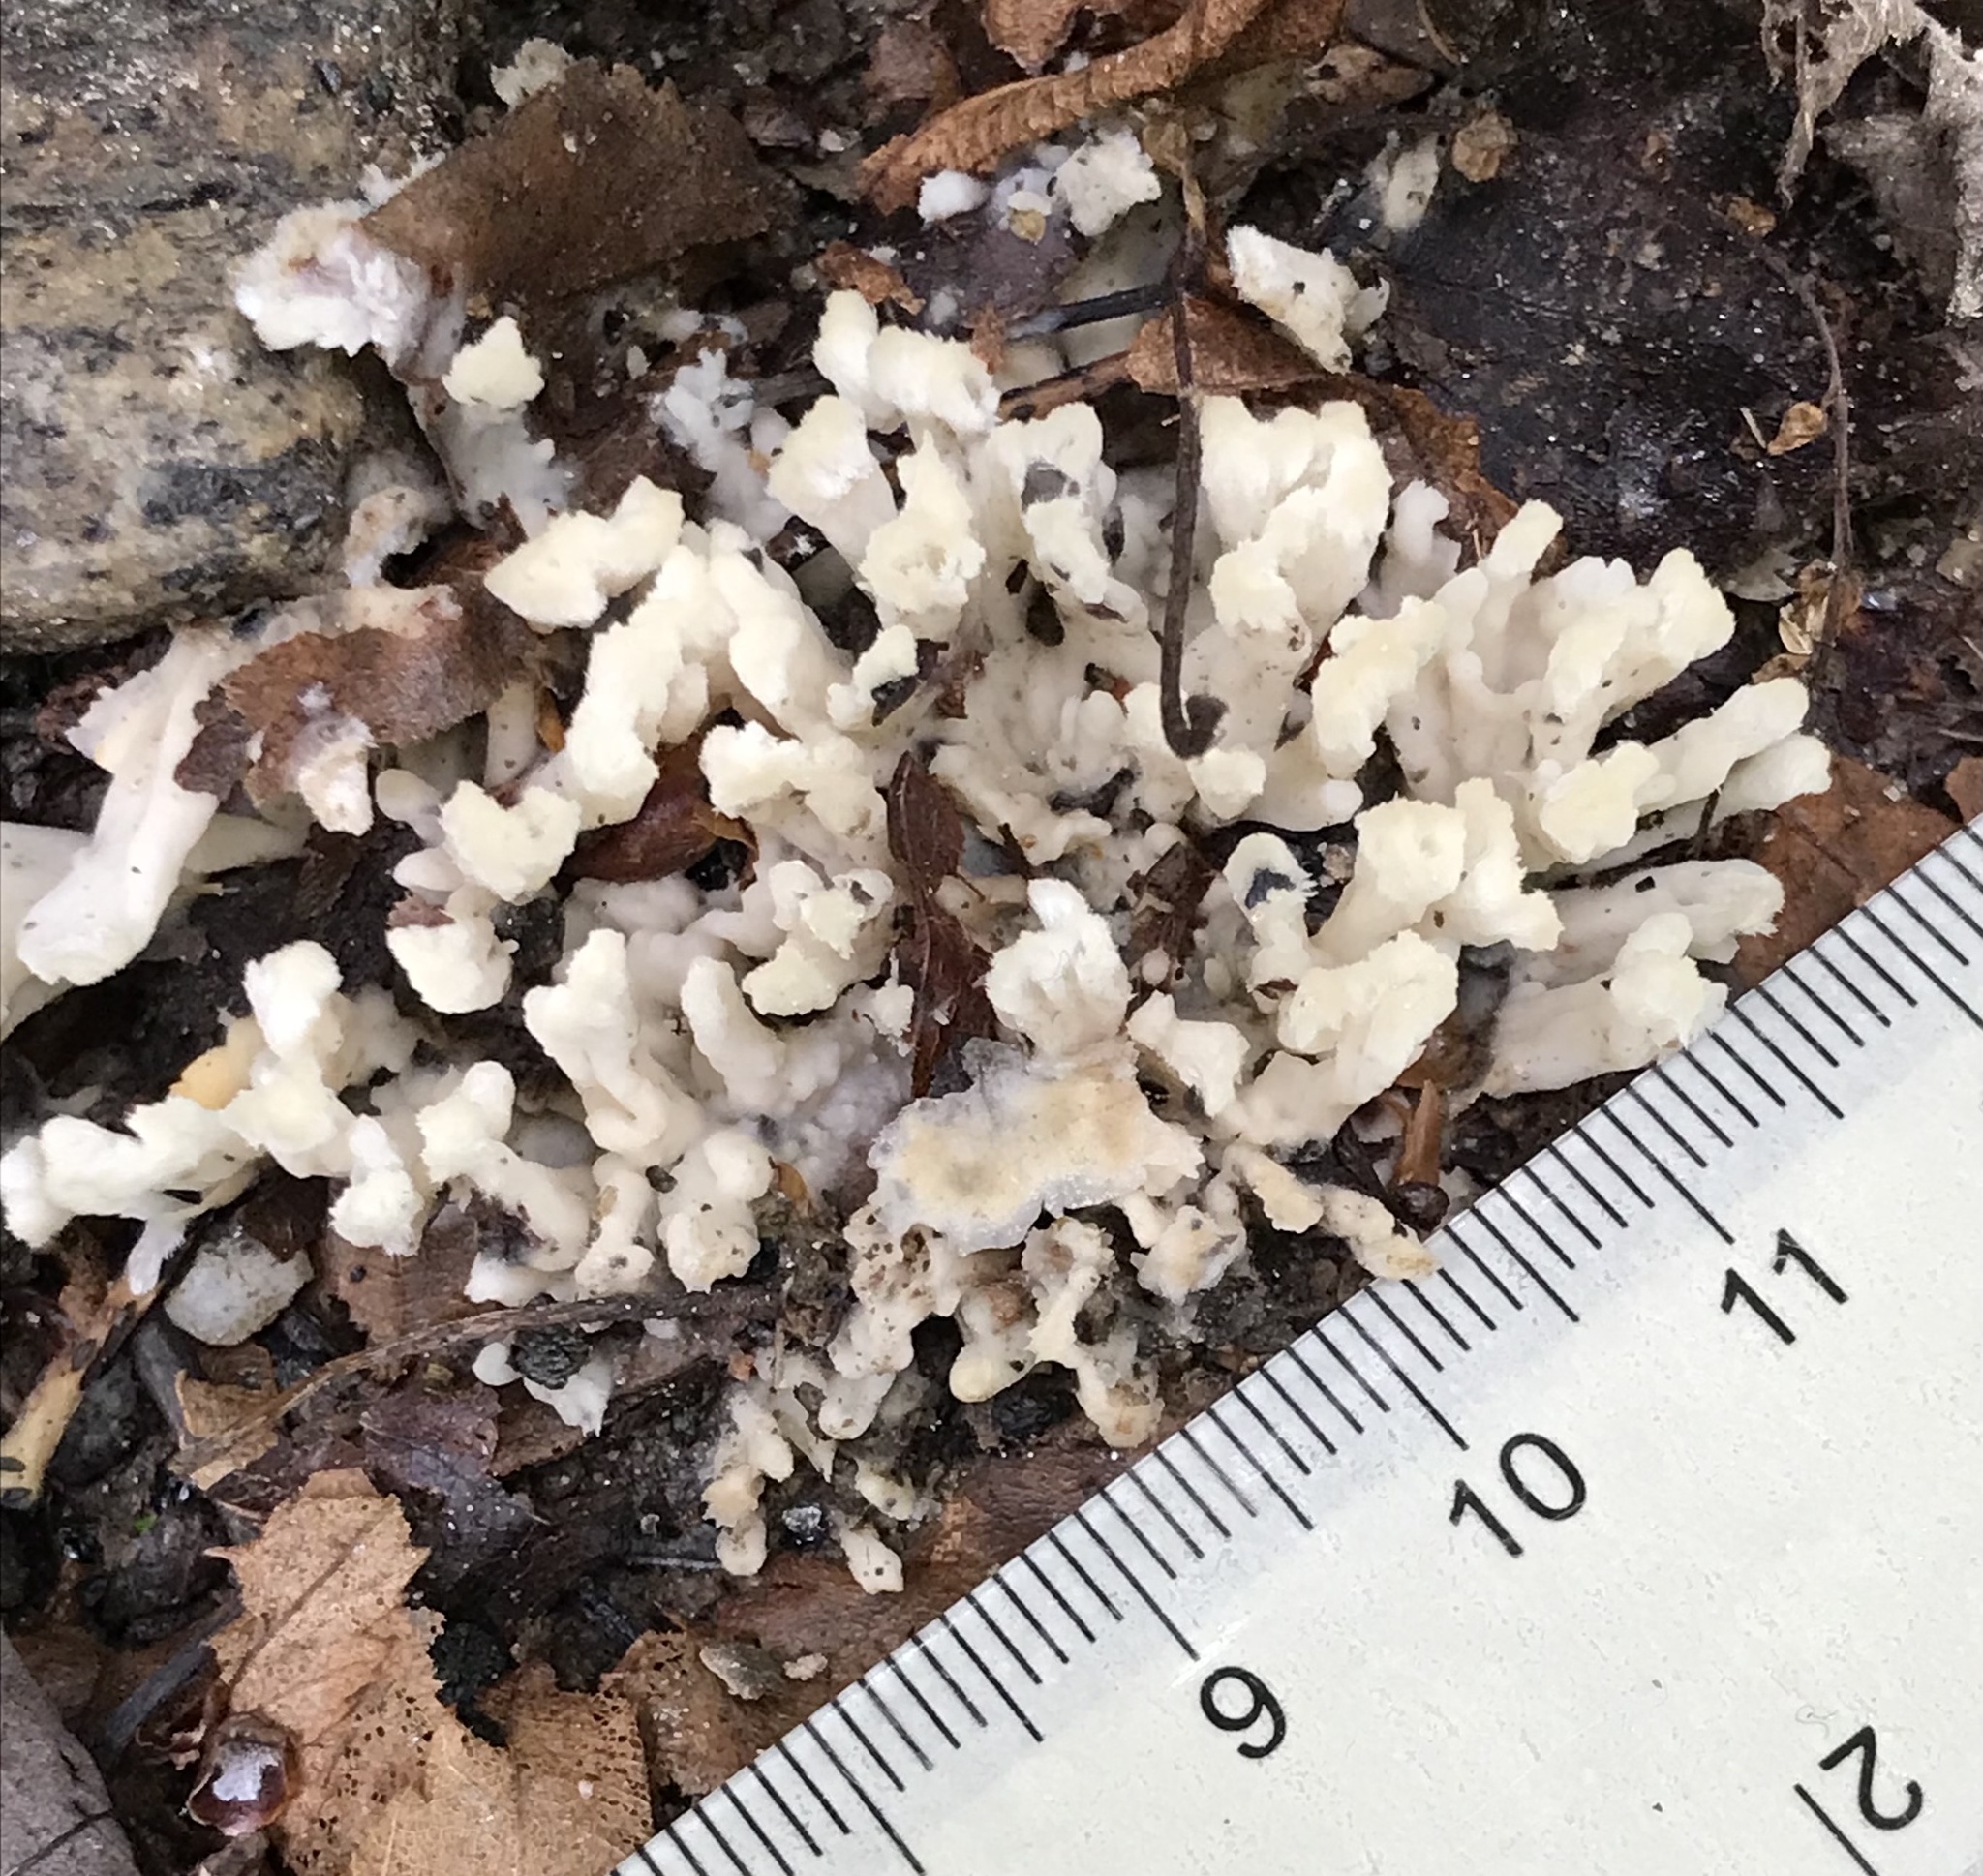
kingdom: Fungi
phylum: Basidiomycota
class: Agaricomycetes
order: Sebacinales
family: Sebacinaceae
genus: Sebacina
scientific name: Sebacina schweinitzii
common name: Jellied false coral fungus
